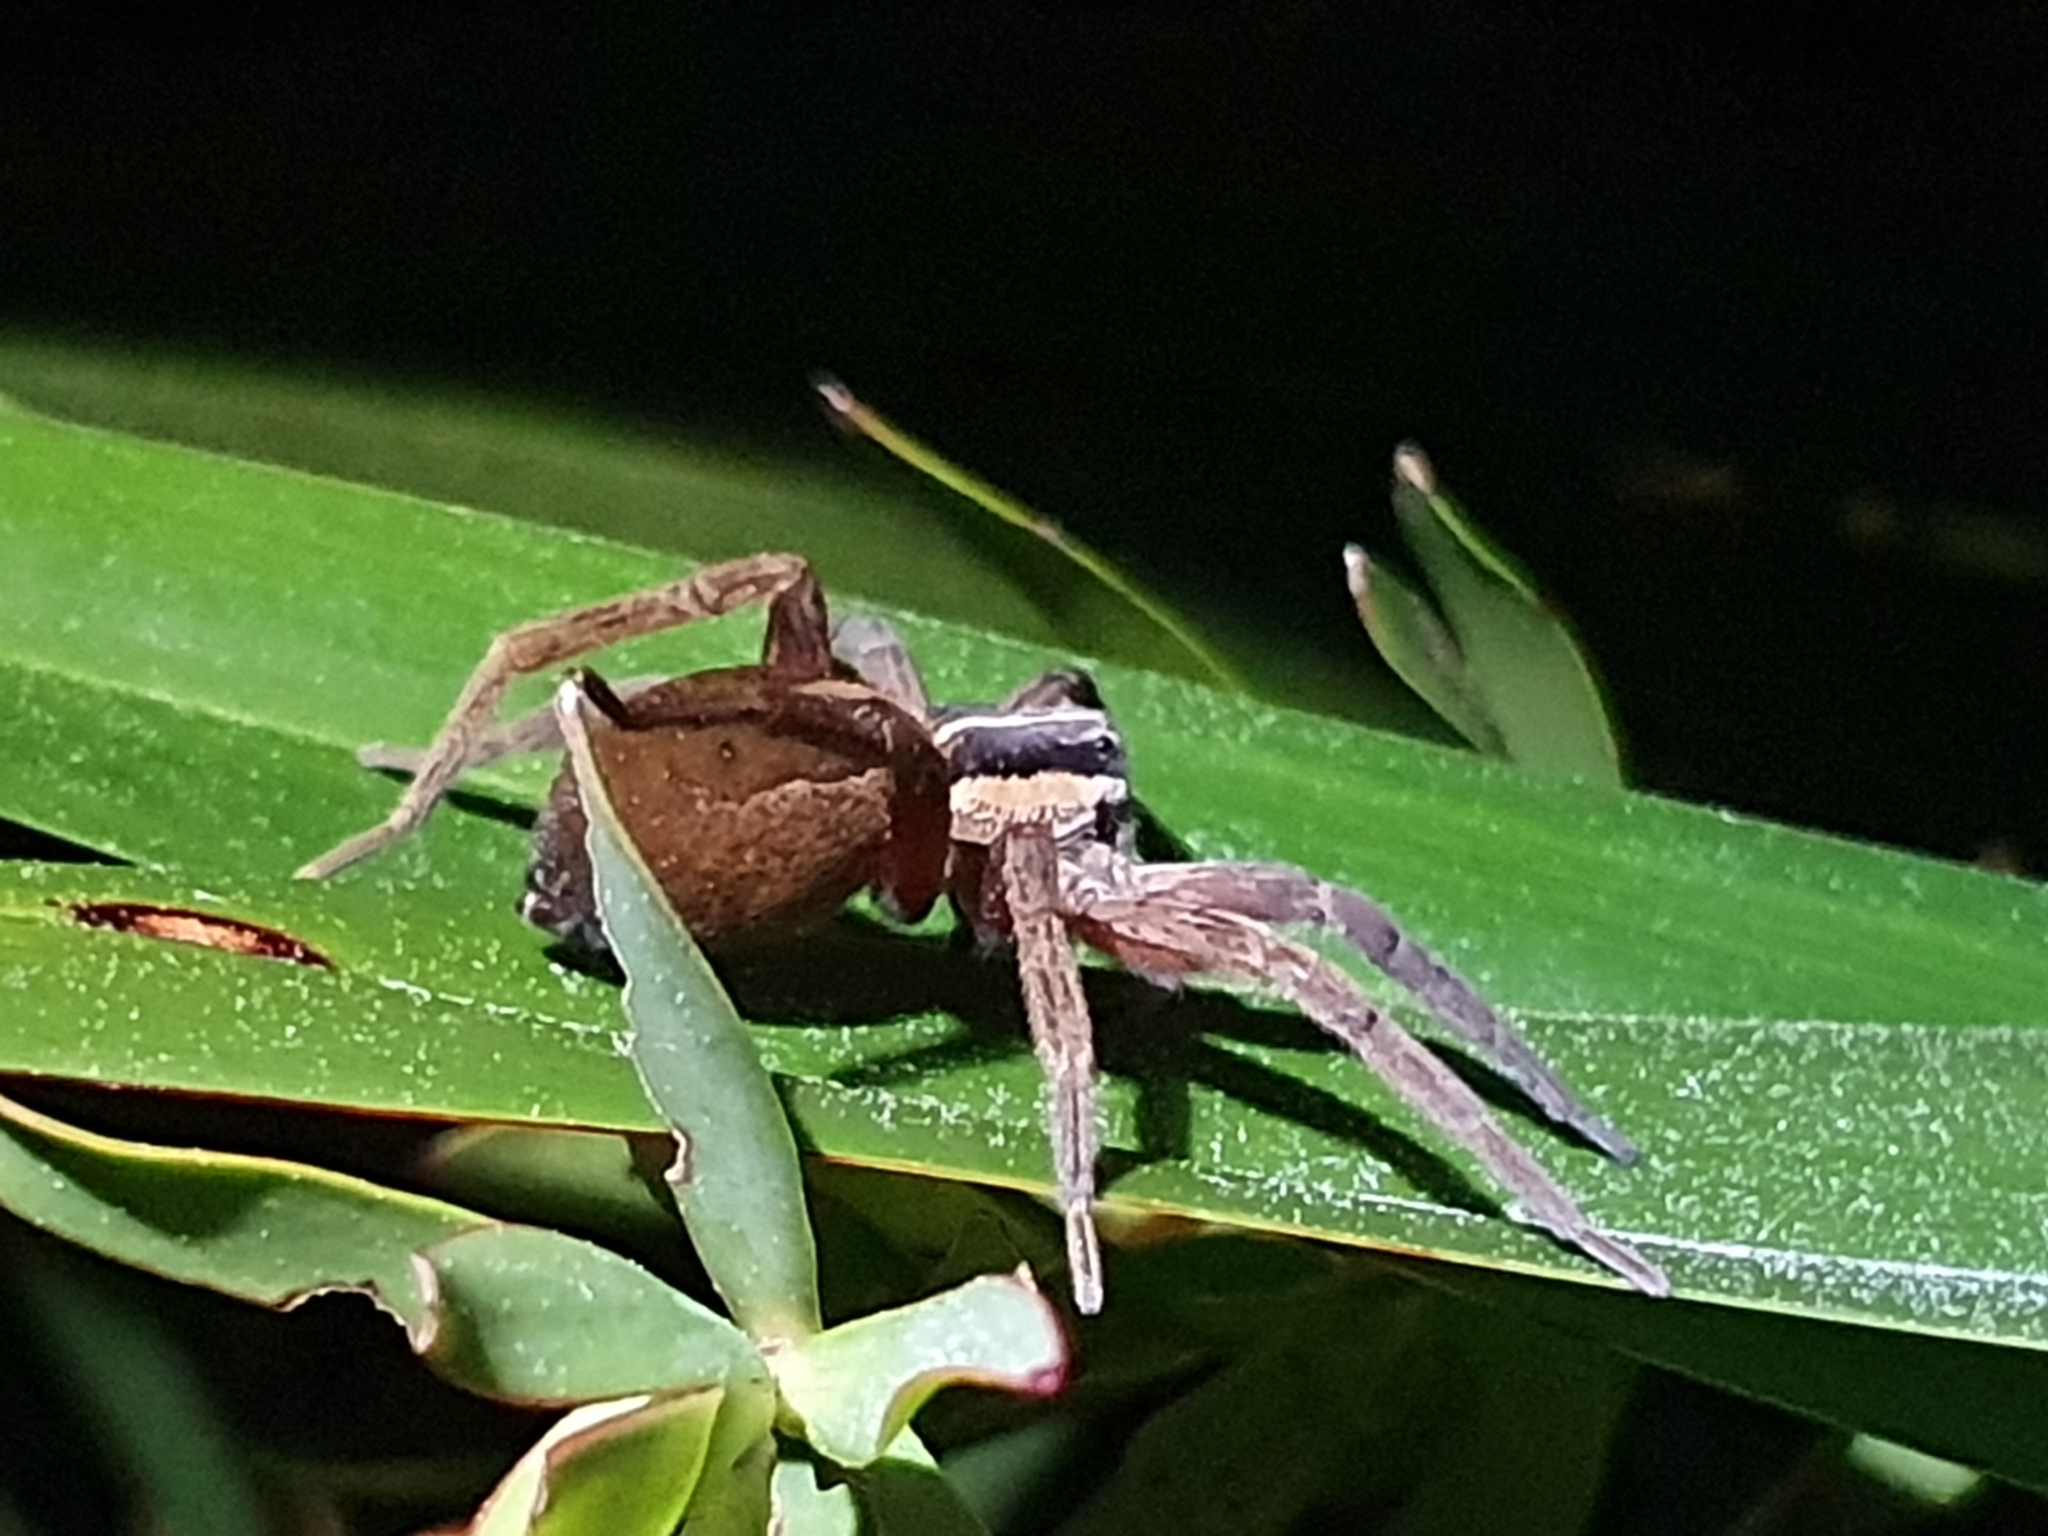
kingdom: Animalia
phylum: Arthropoda
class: Arachnida
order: Araneae
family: Pisauridae
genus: Dolomedes
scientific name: Dolomedes minor
